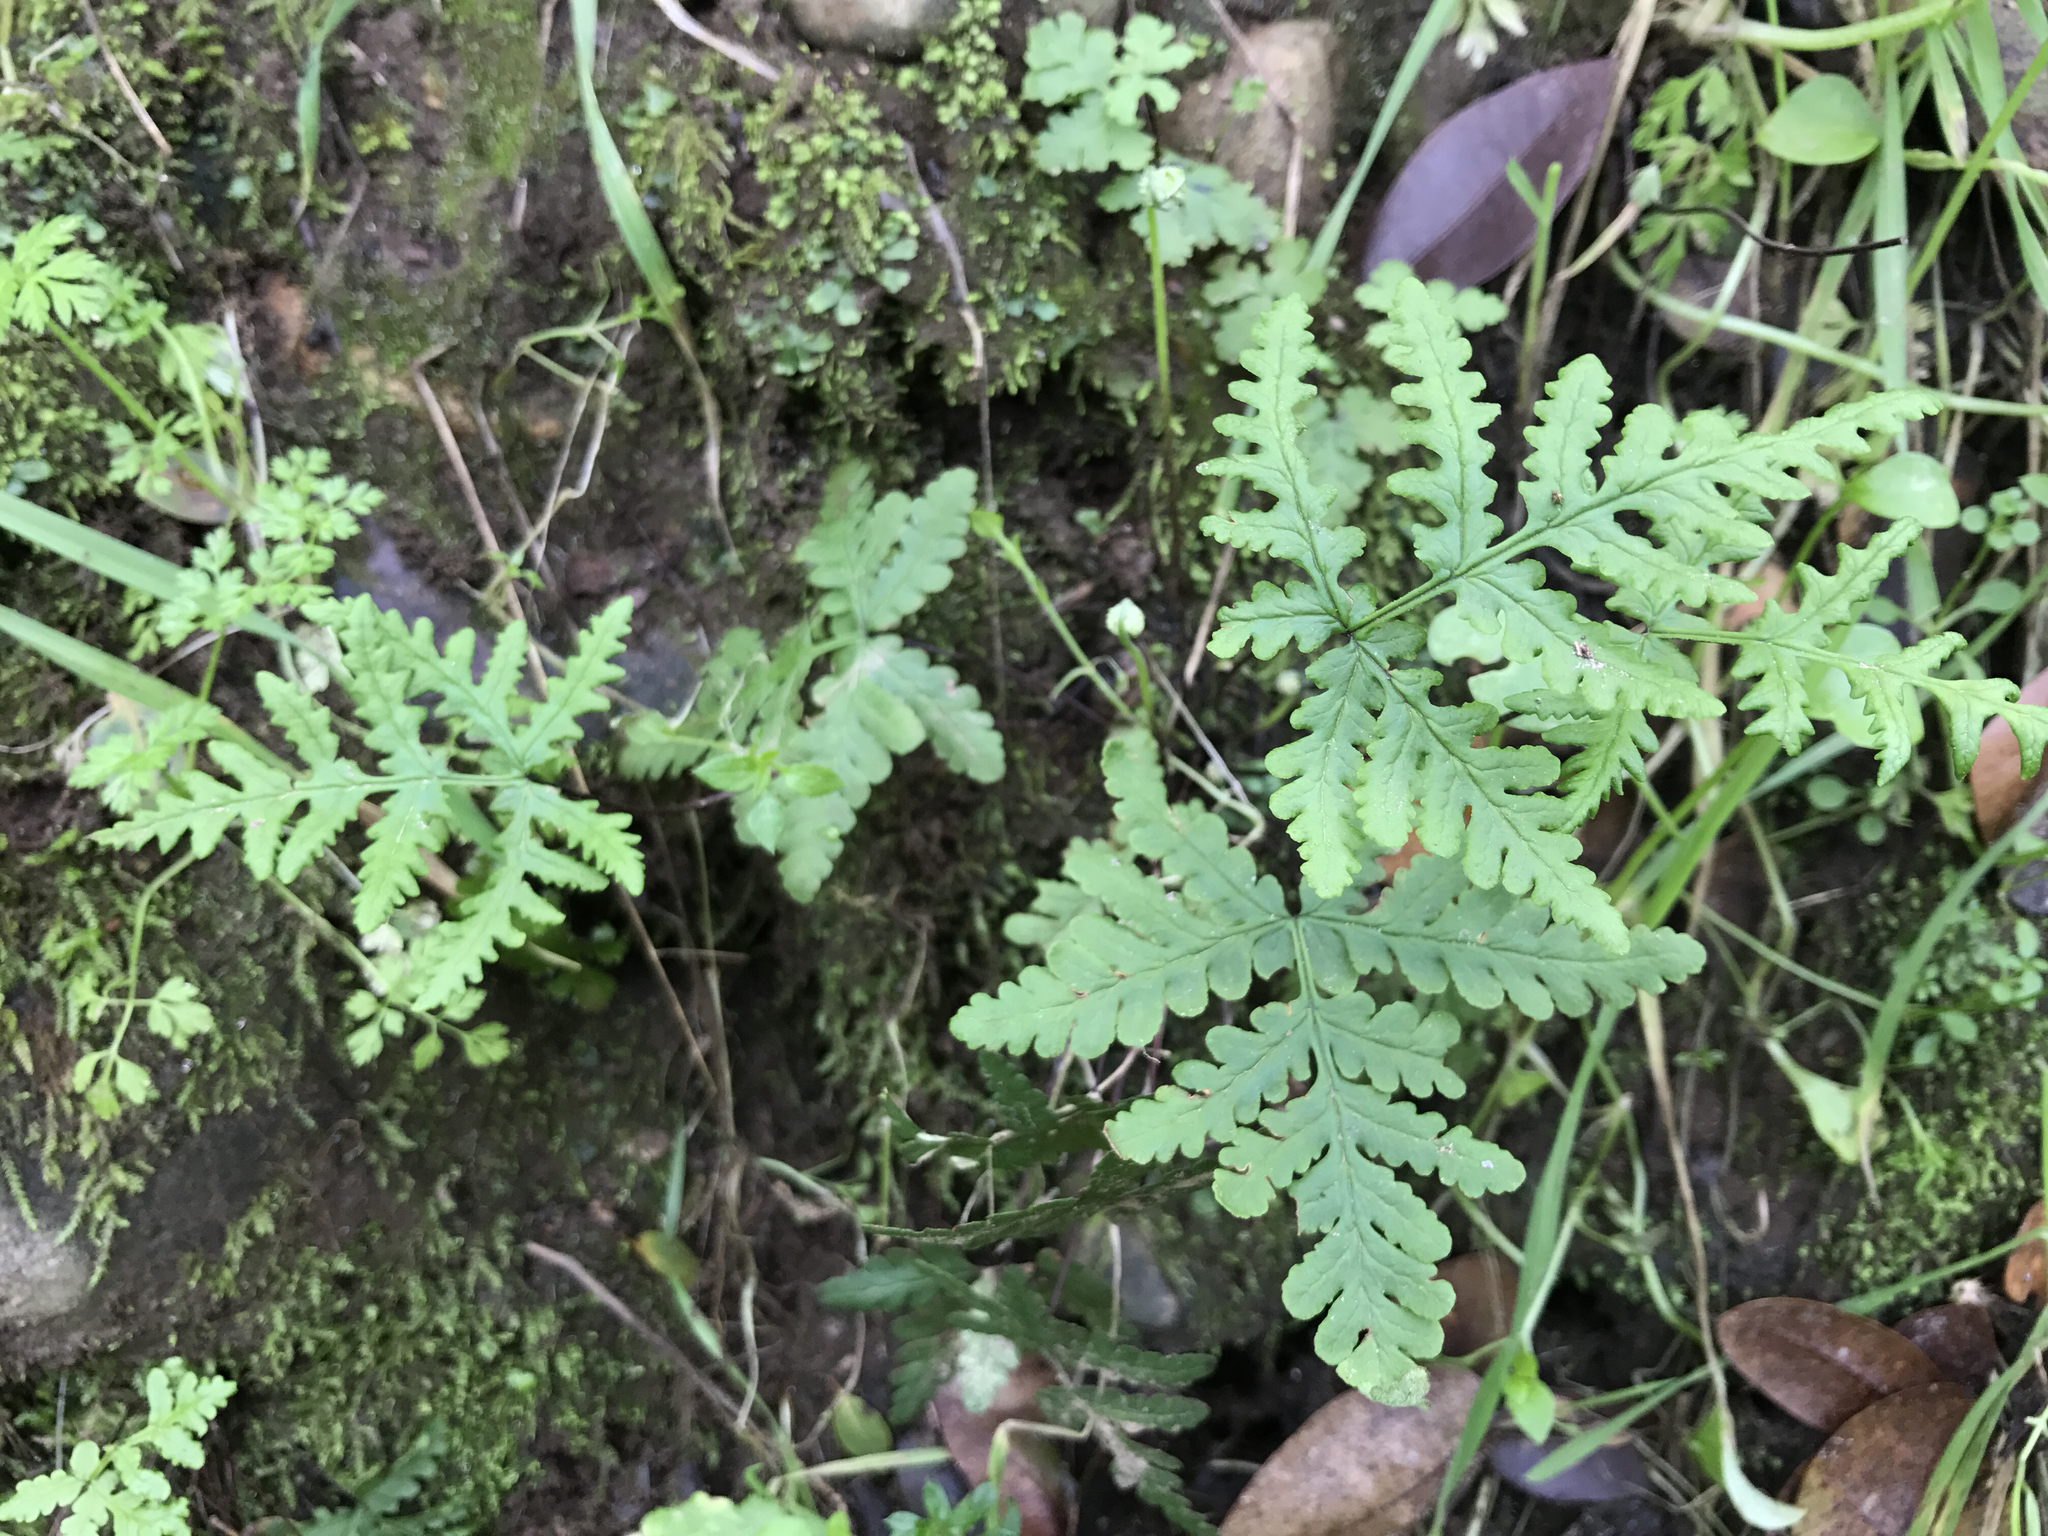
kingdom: Plantae
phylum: Tracheophyta
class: Polypodiopsida
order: Polypodiales
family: Pteridaceae
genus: Pentagramma
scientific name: Pentagramma triangularis
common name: Gold fern
